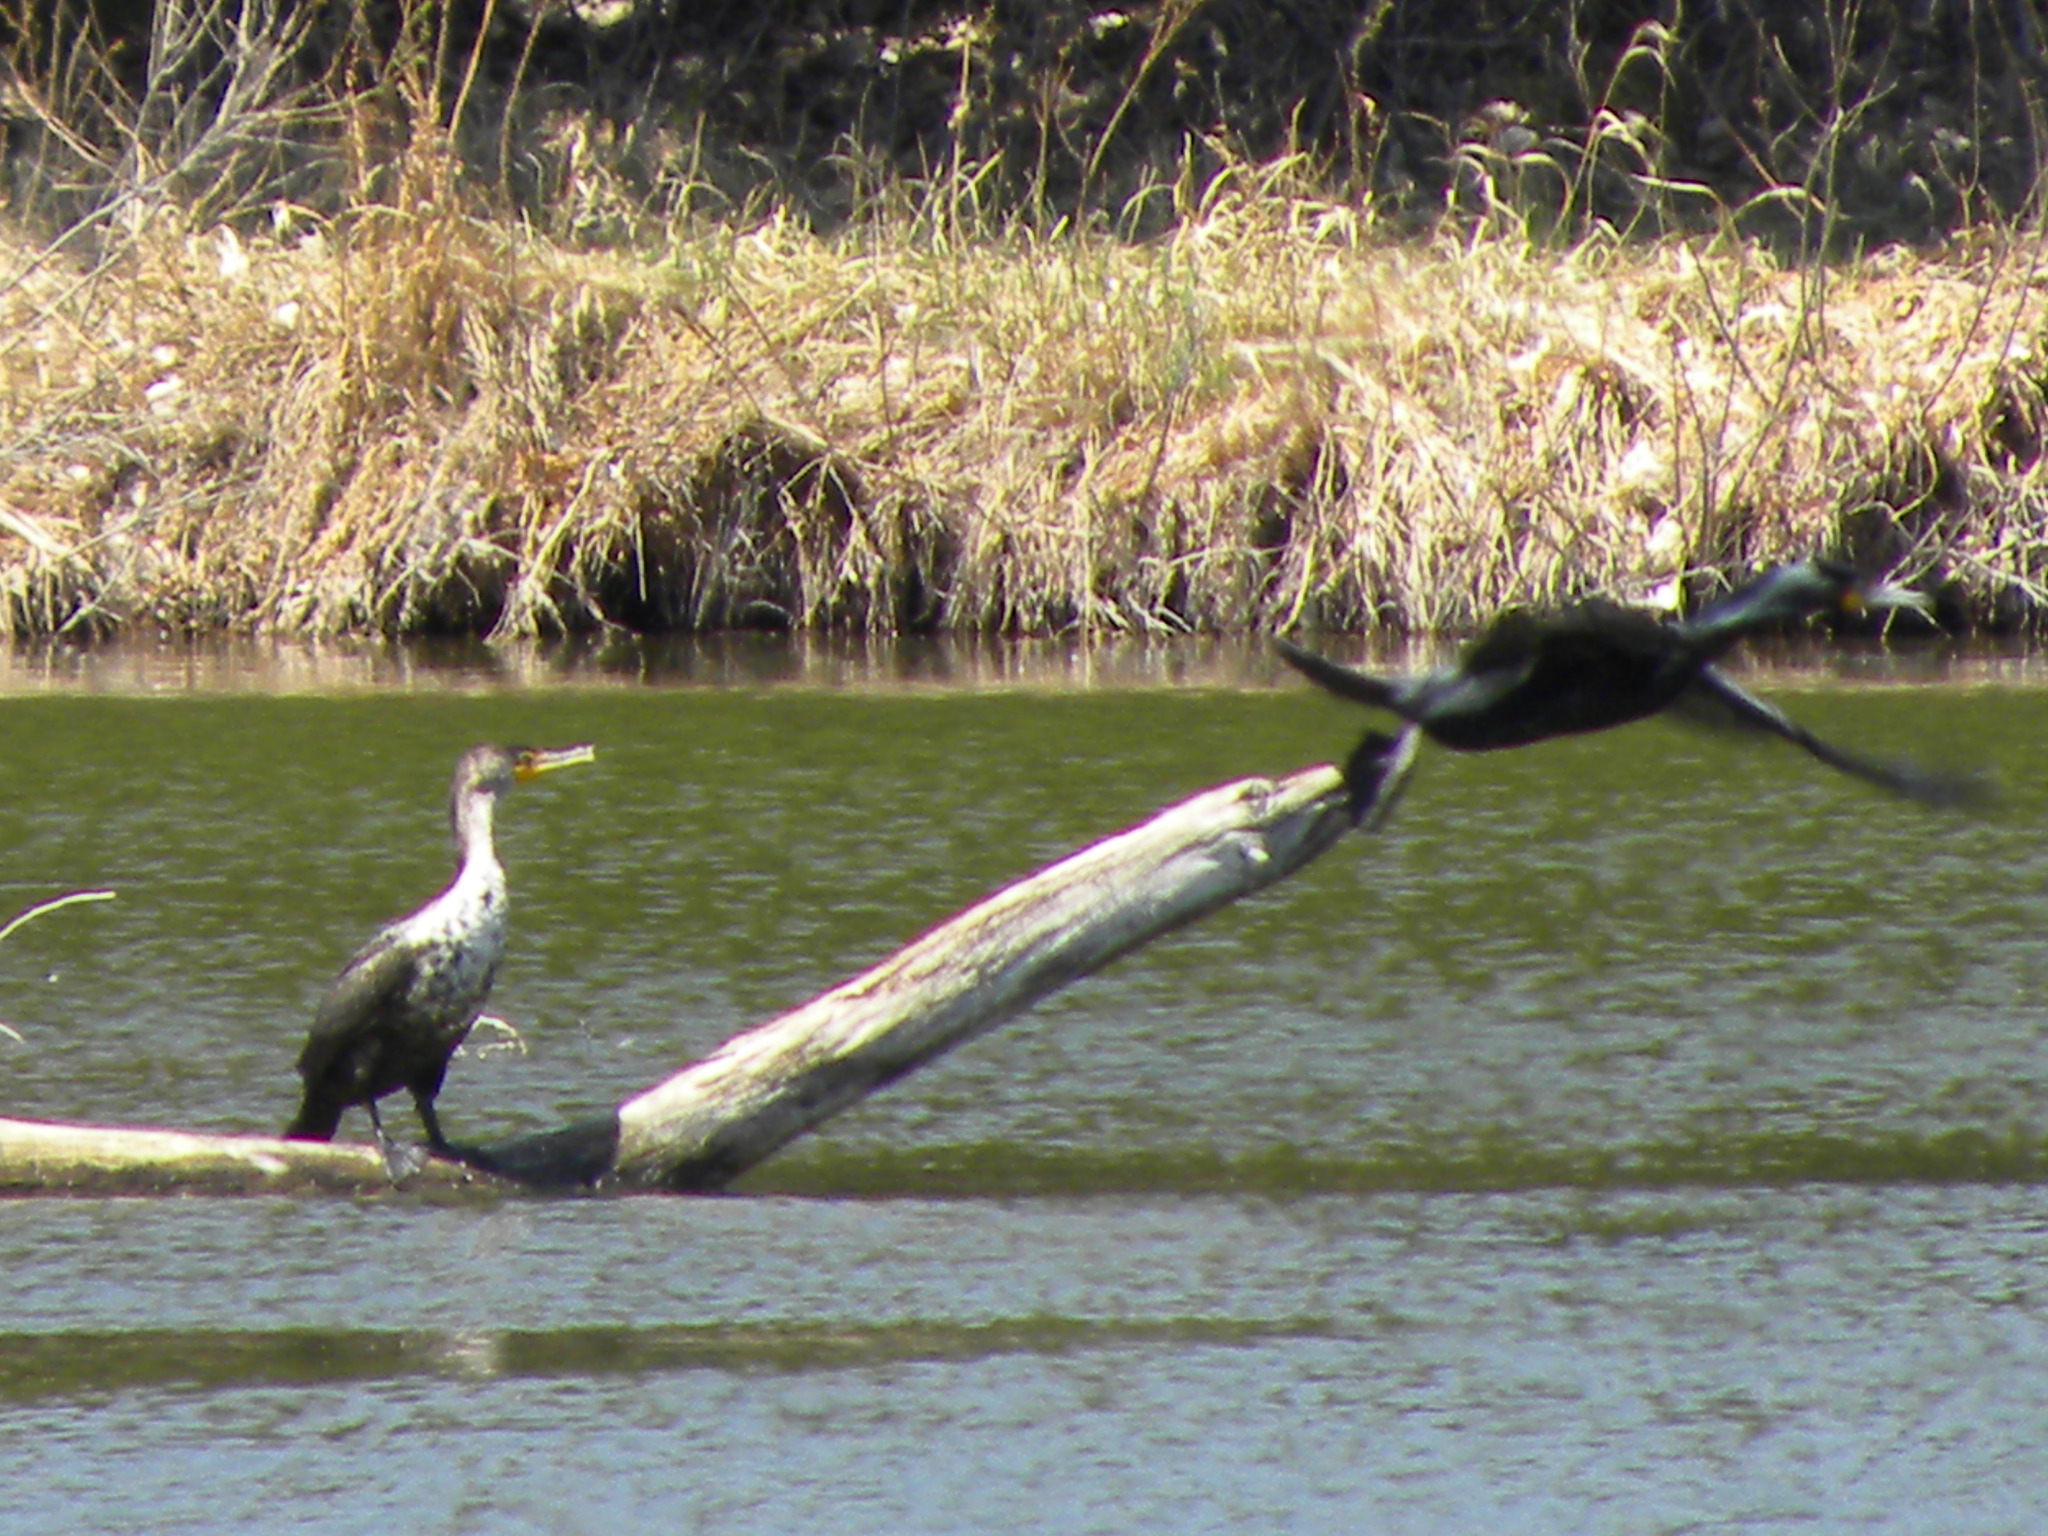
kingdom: Animalia
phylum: Chordata
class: Aves
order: Suliformes
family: Phalacrocoracidae
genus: Phalacrocorax
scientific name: Phalacrocorax auritus
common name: Double-crested cormorant
